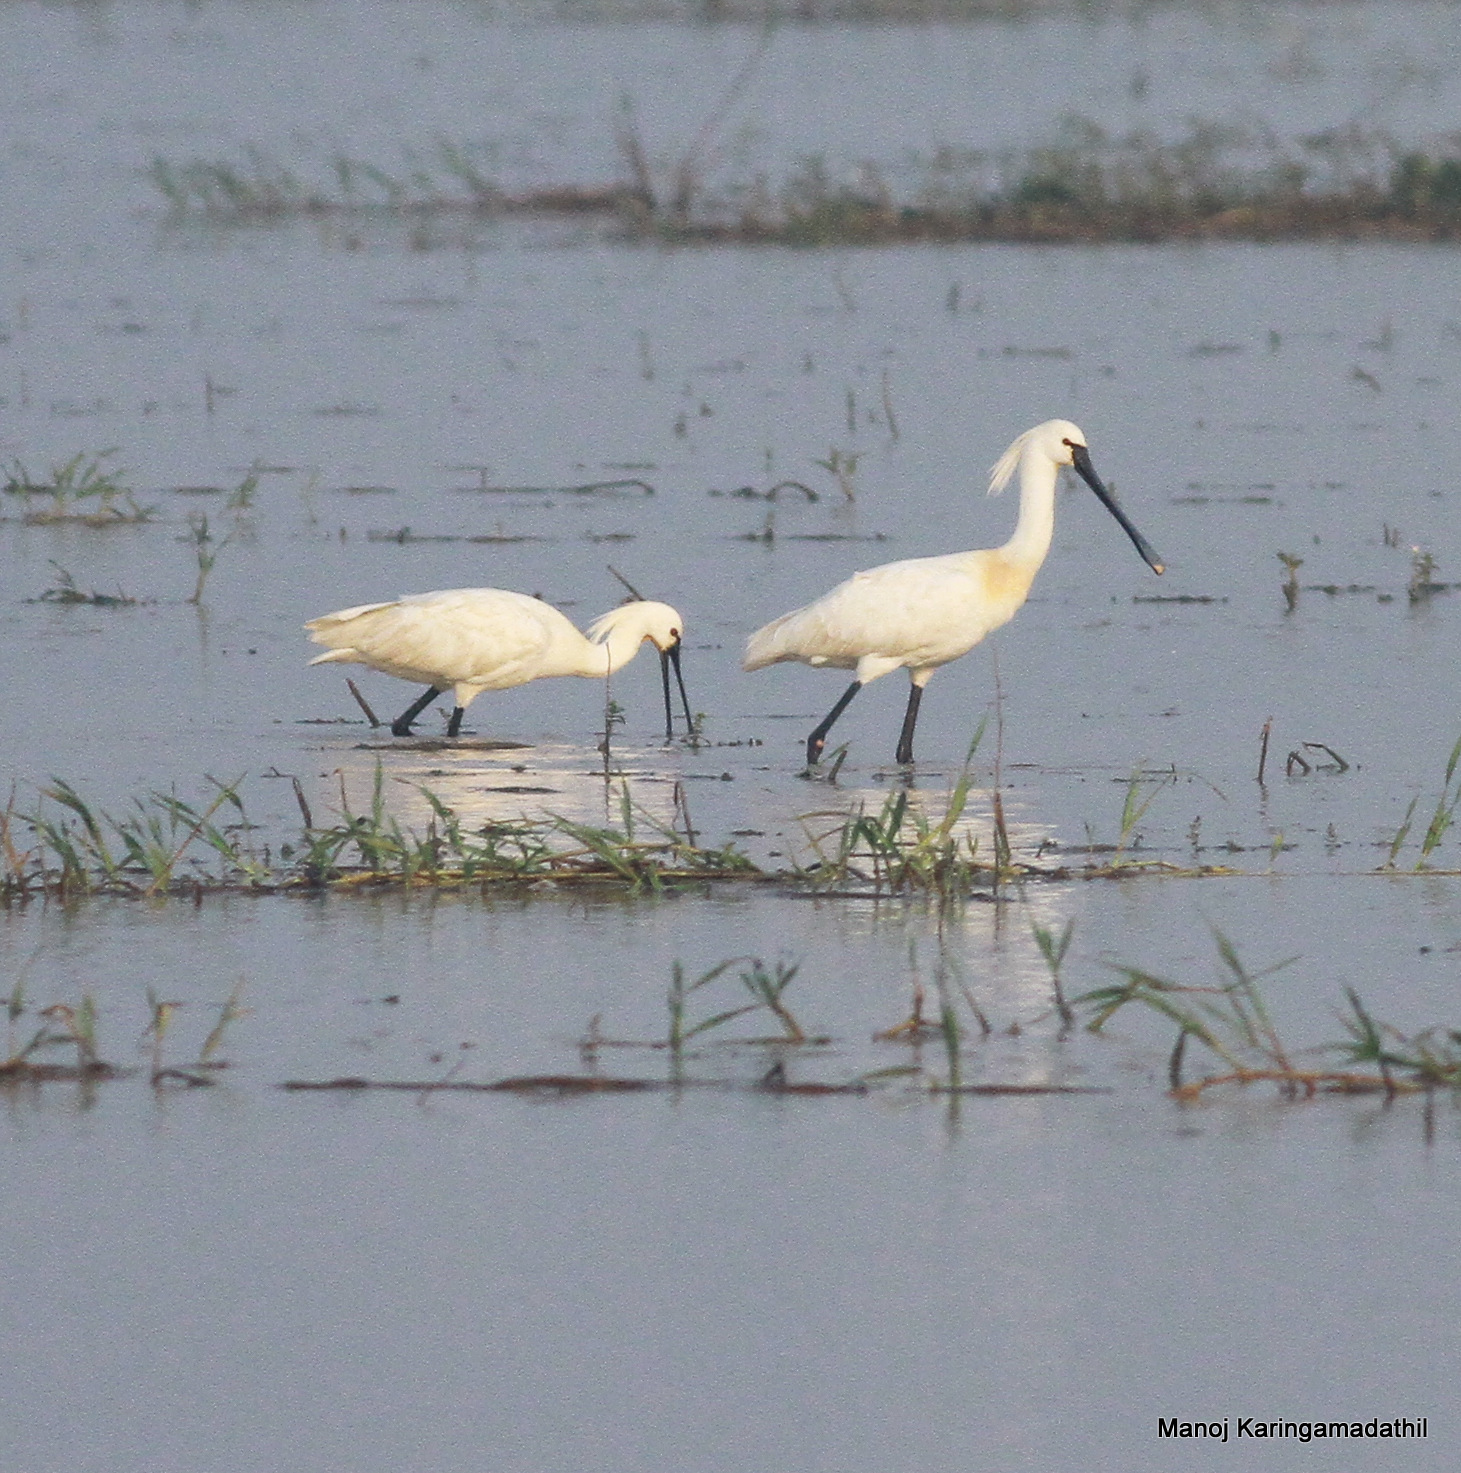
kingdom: Animalia
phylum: Chordata
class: Aves
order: Pelecaniformes
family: Threskiornithidae
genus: Platalea
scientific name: Platalea leucorodia
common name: Eurasian spoonbill
